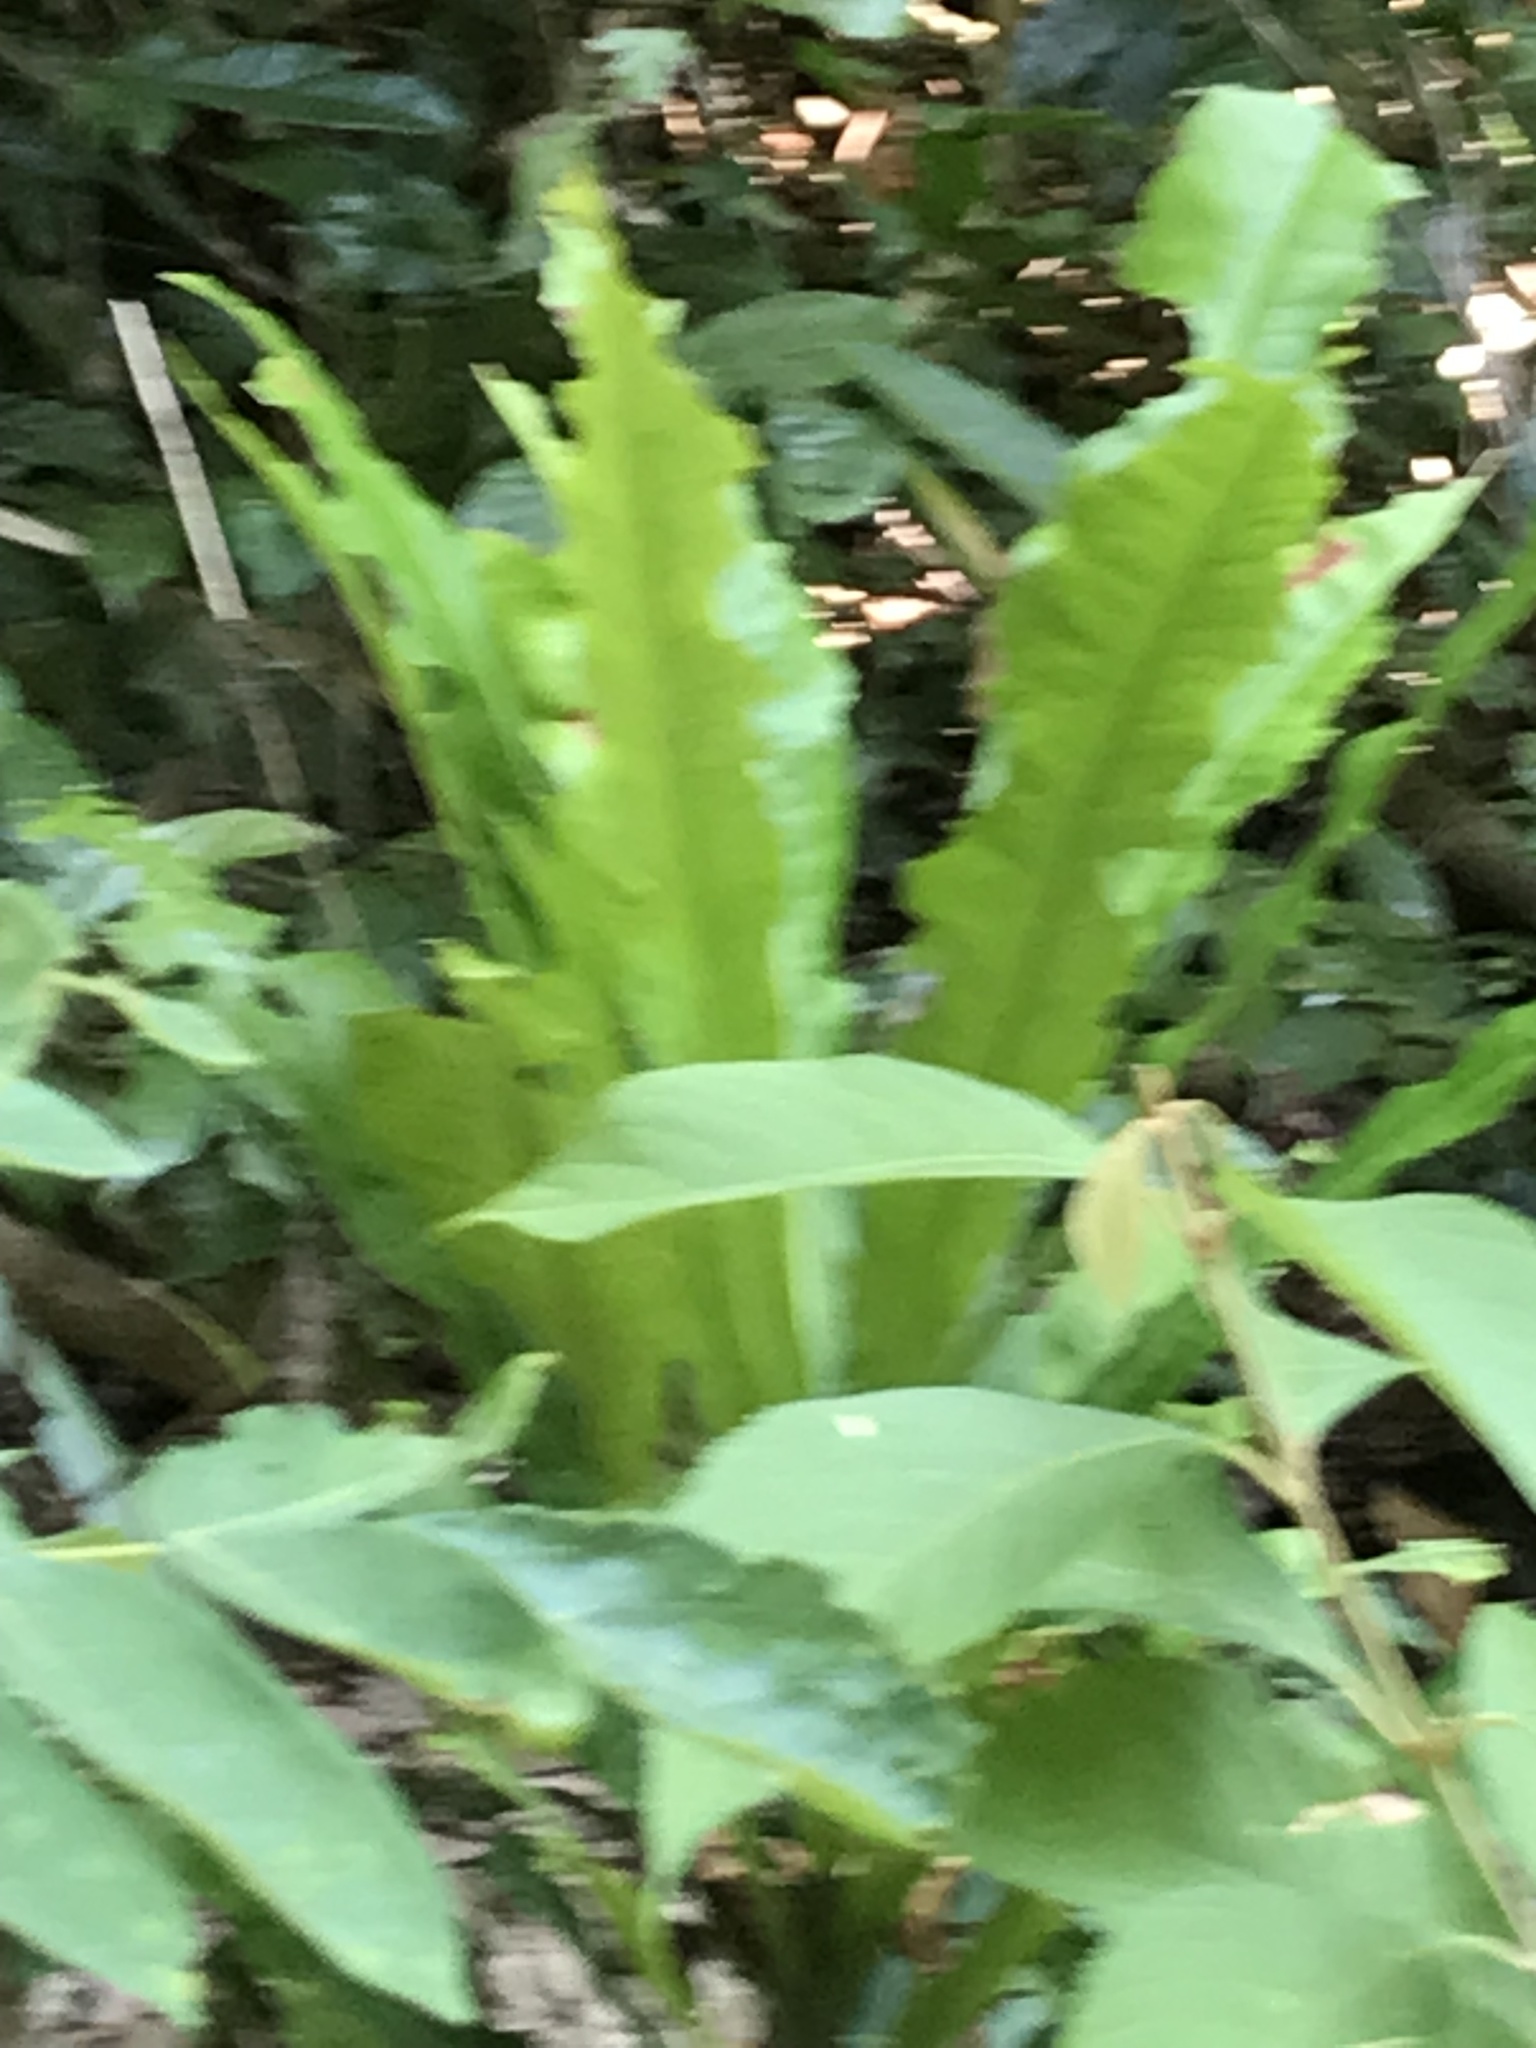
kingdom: Plantae
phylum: Tracheophyta
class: Polypodiopsida
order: Polypodiales
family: Aspleniaceae
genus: Asplenium
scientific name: Asplenium nidus
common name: Bird's-nest fern
